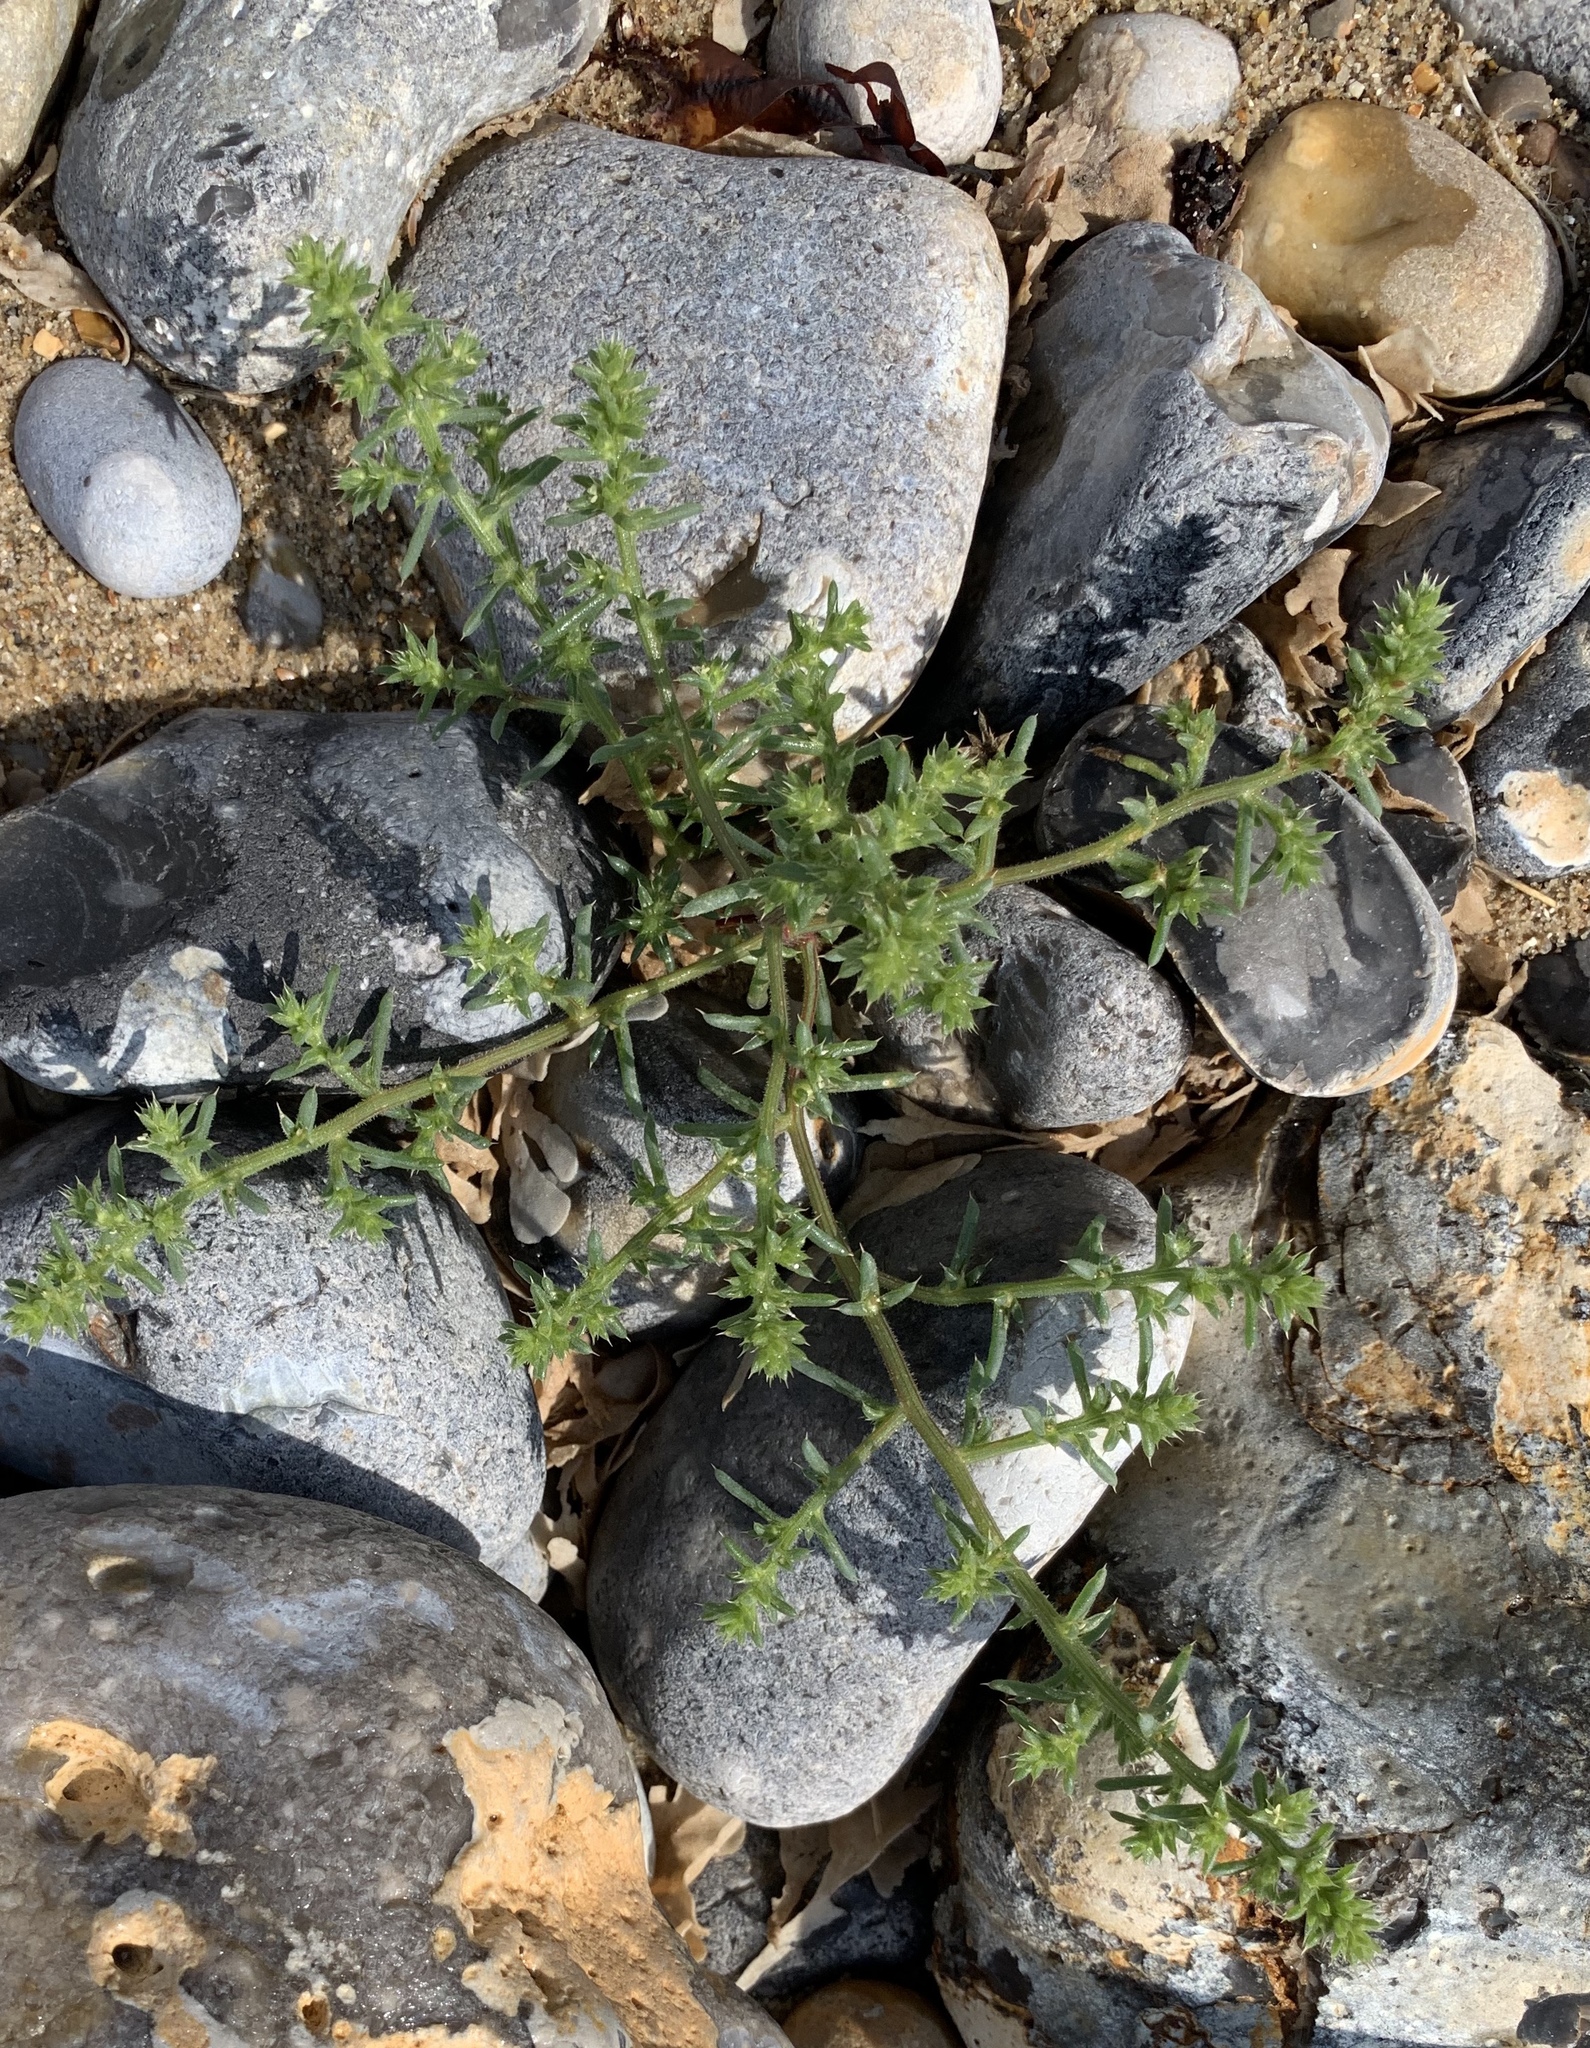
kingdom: Plantae
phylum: Tracheophyta
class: Magnoliopsida
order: Caryophyllales
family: Amaranthaceae
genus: Salsola
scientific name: Salsola kali
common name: Saltwort
